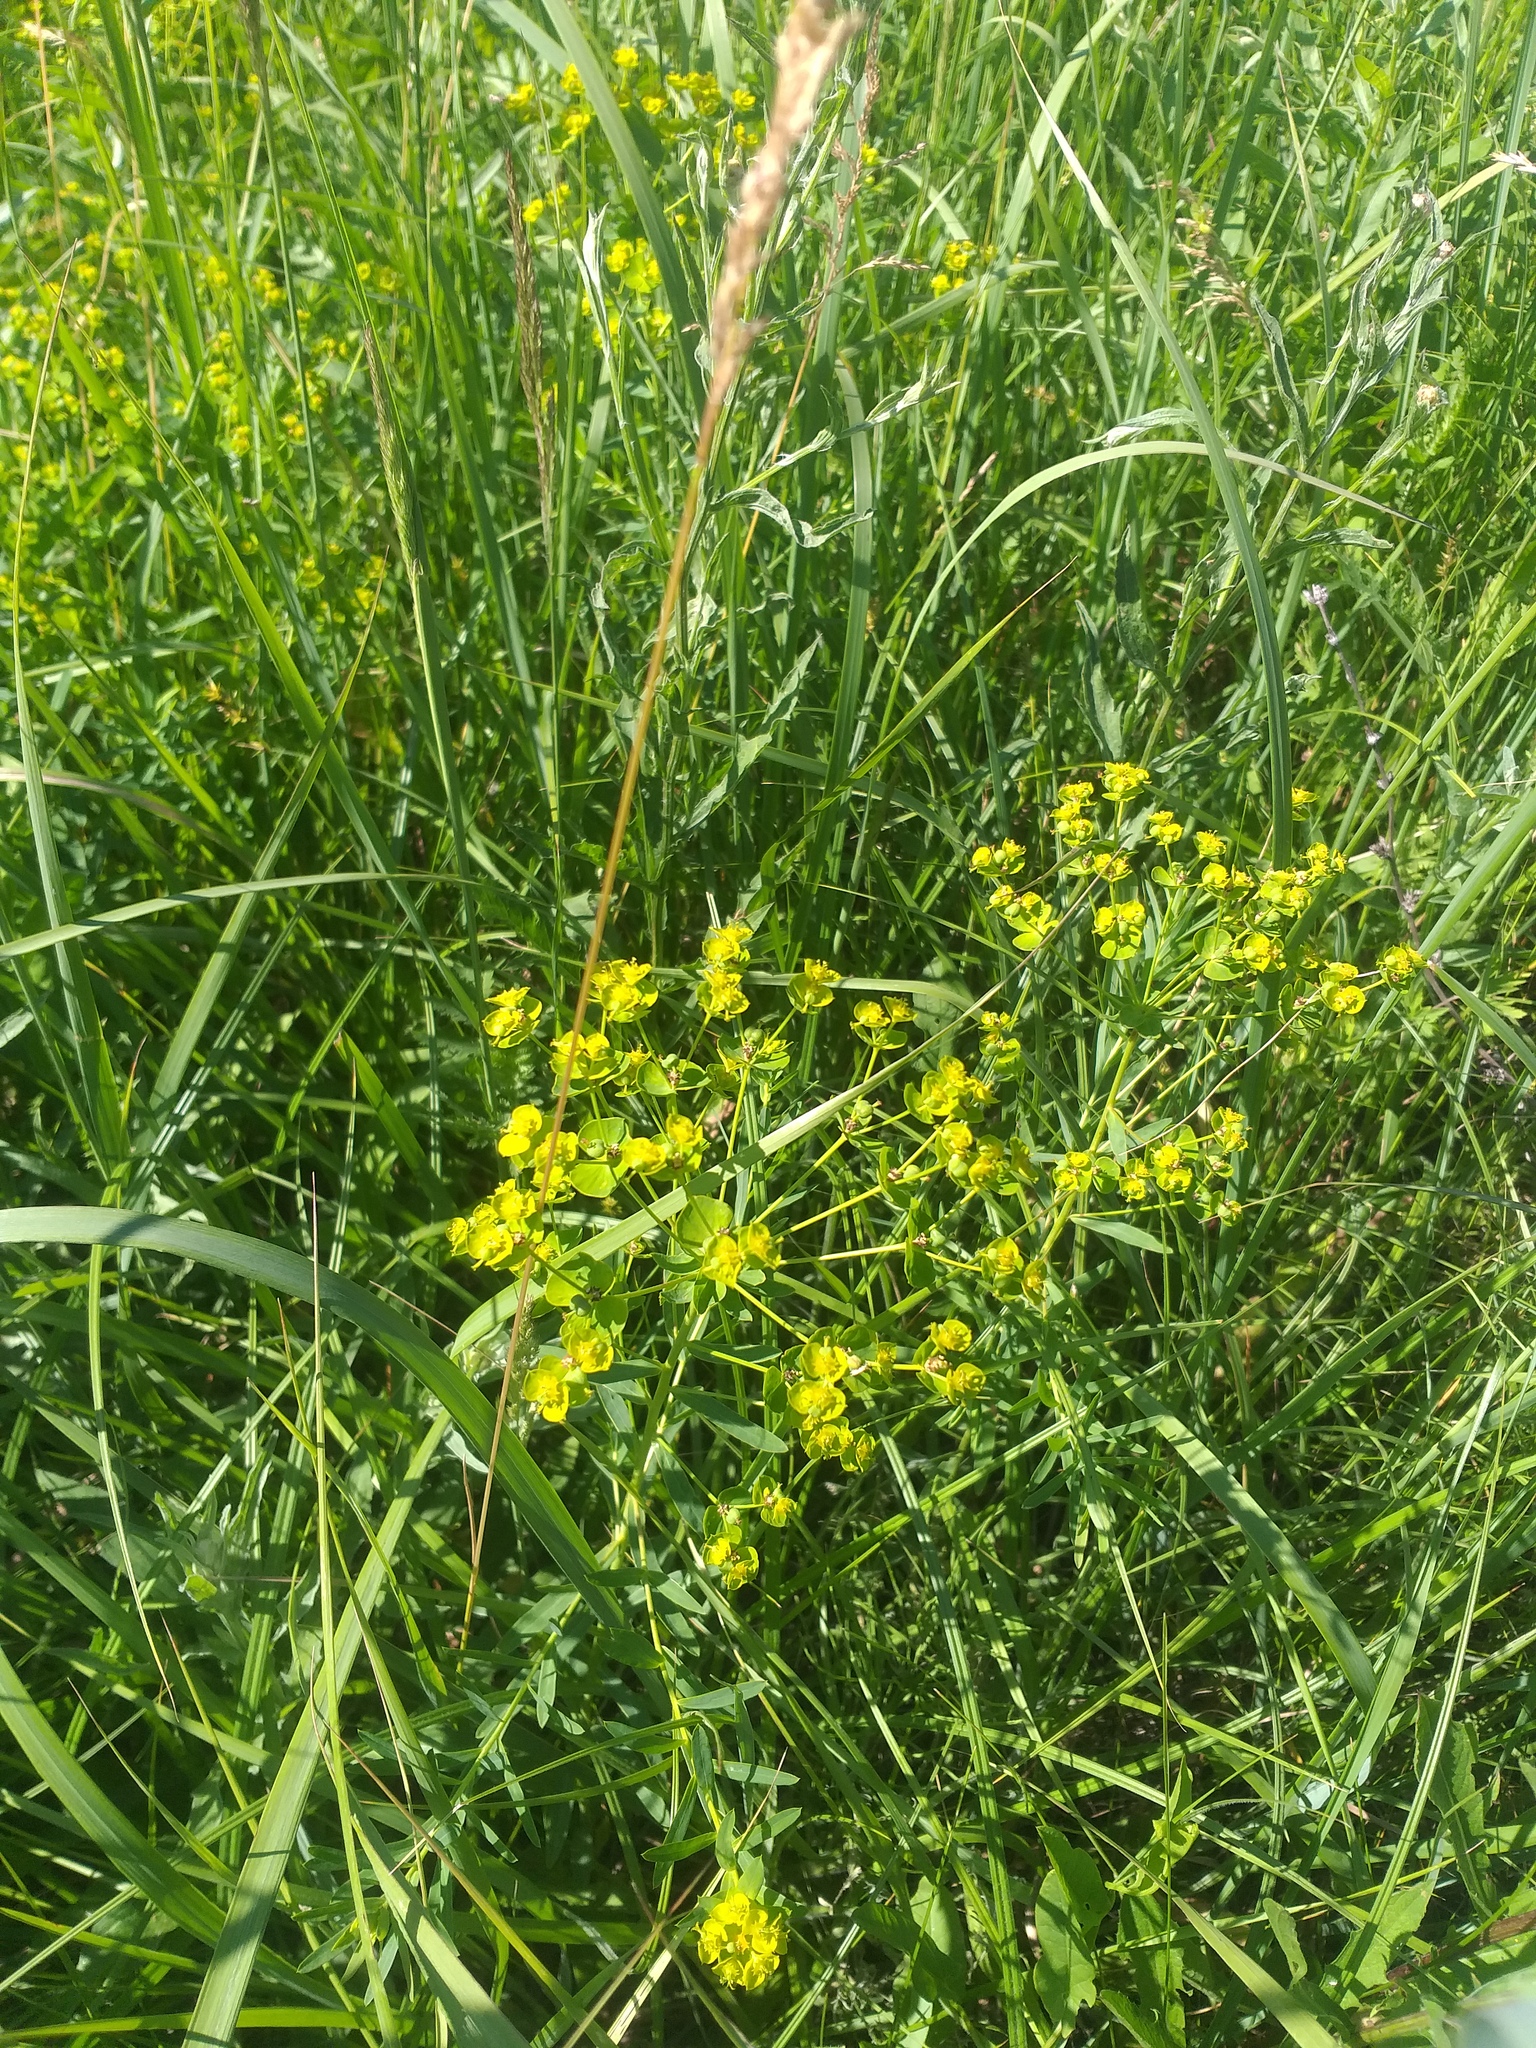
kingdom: Plantae
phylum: Tracheophyta
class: Magnoliopsida
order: Malpighiales
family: Euphorbiaceae
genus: Euphorbia
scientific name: Euphorbia virgata
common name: Leafy spurge
